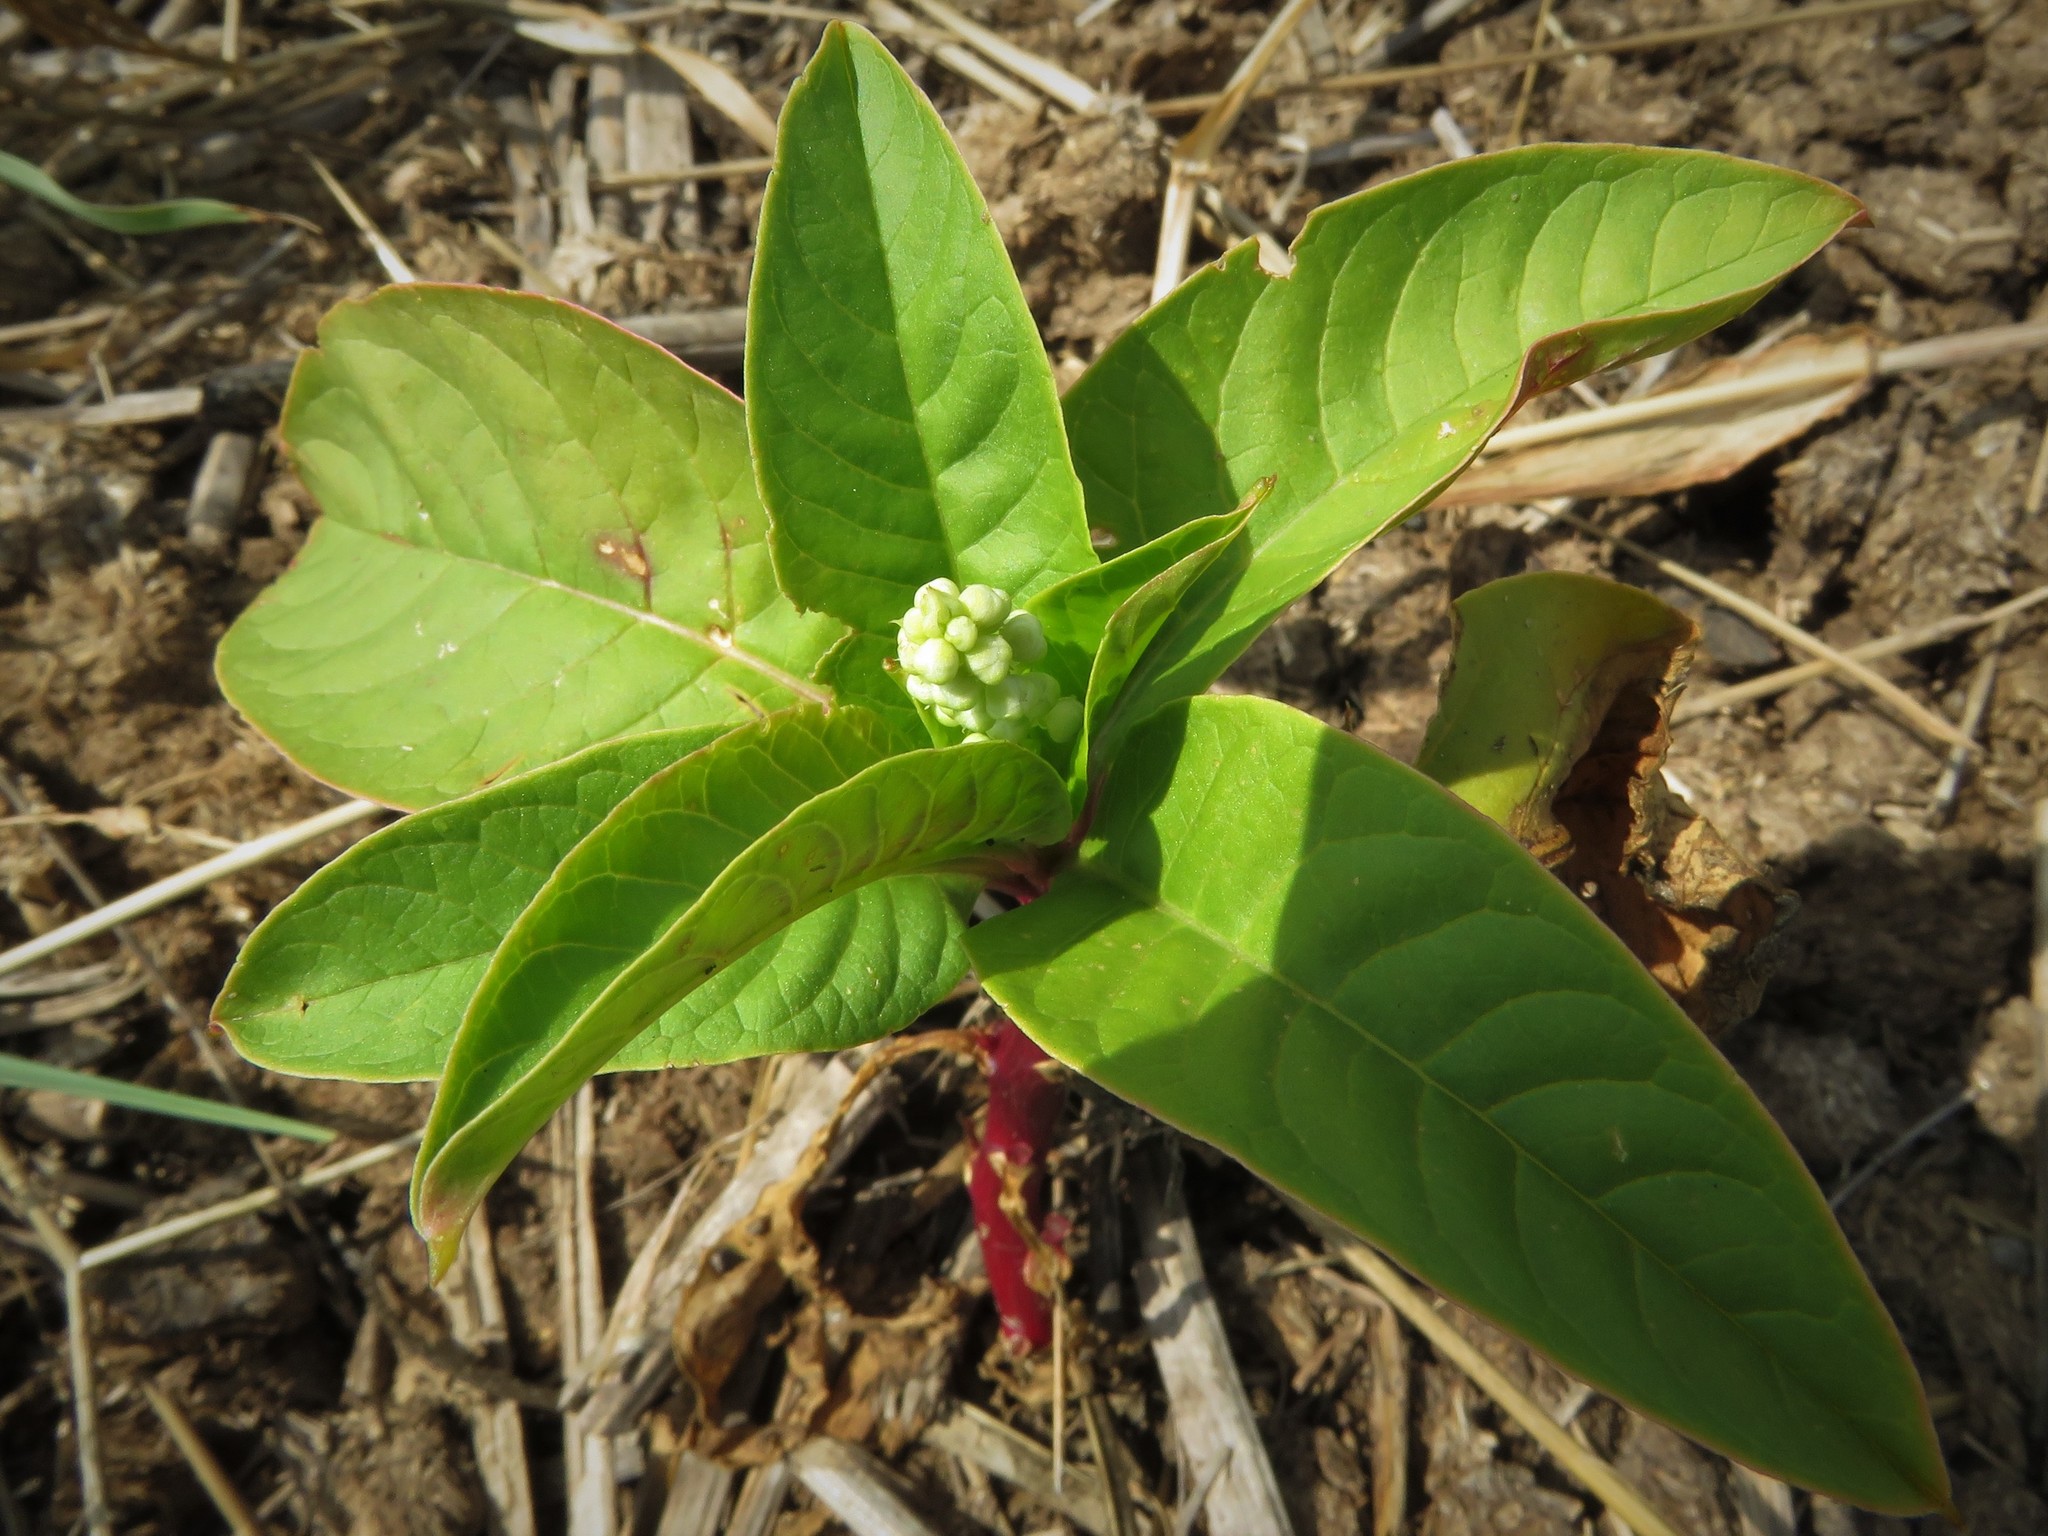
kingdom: Plantae
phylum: Tracheophyta
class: Magnoliopsida
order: Caryophyllales
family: Phytolaccaceae
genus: Phytolacca
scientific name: Phytolacca americana
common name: American pokeweed
